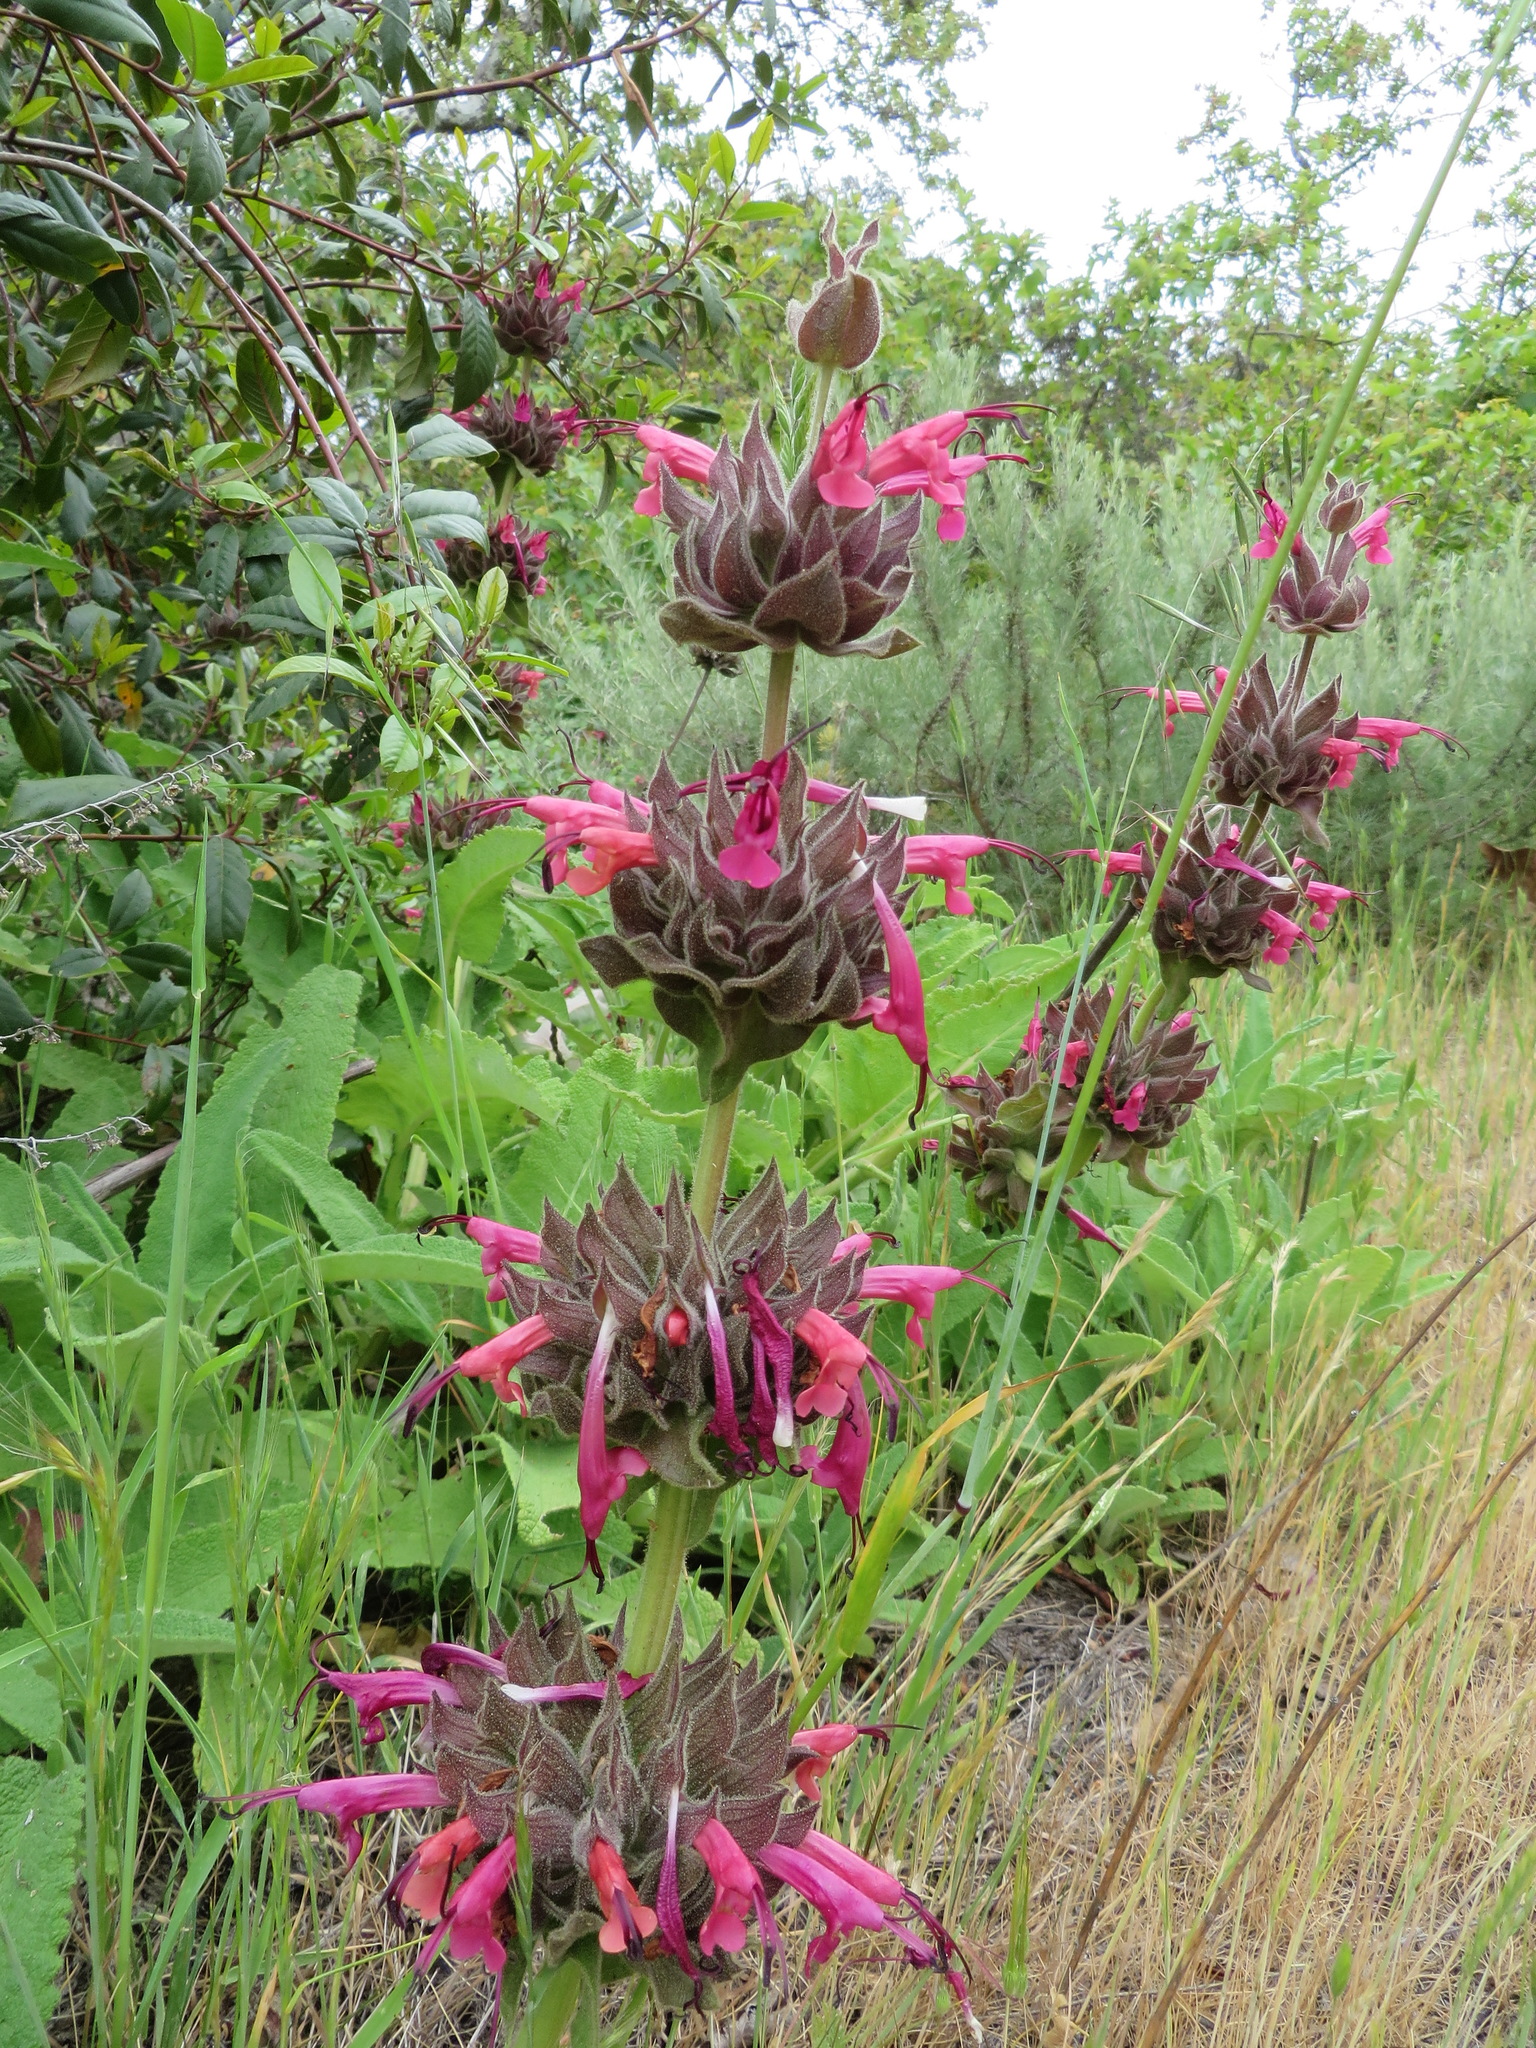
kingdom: Plantae
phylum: Tracheophyta
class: Magnoliopsida
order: Lamiales
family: Lamiaceae
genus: Salvia
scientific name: Salvia spathacea
